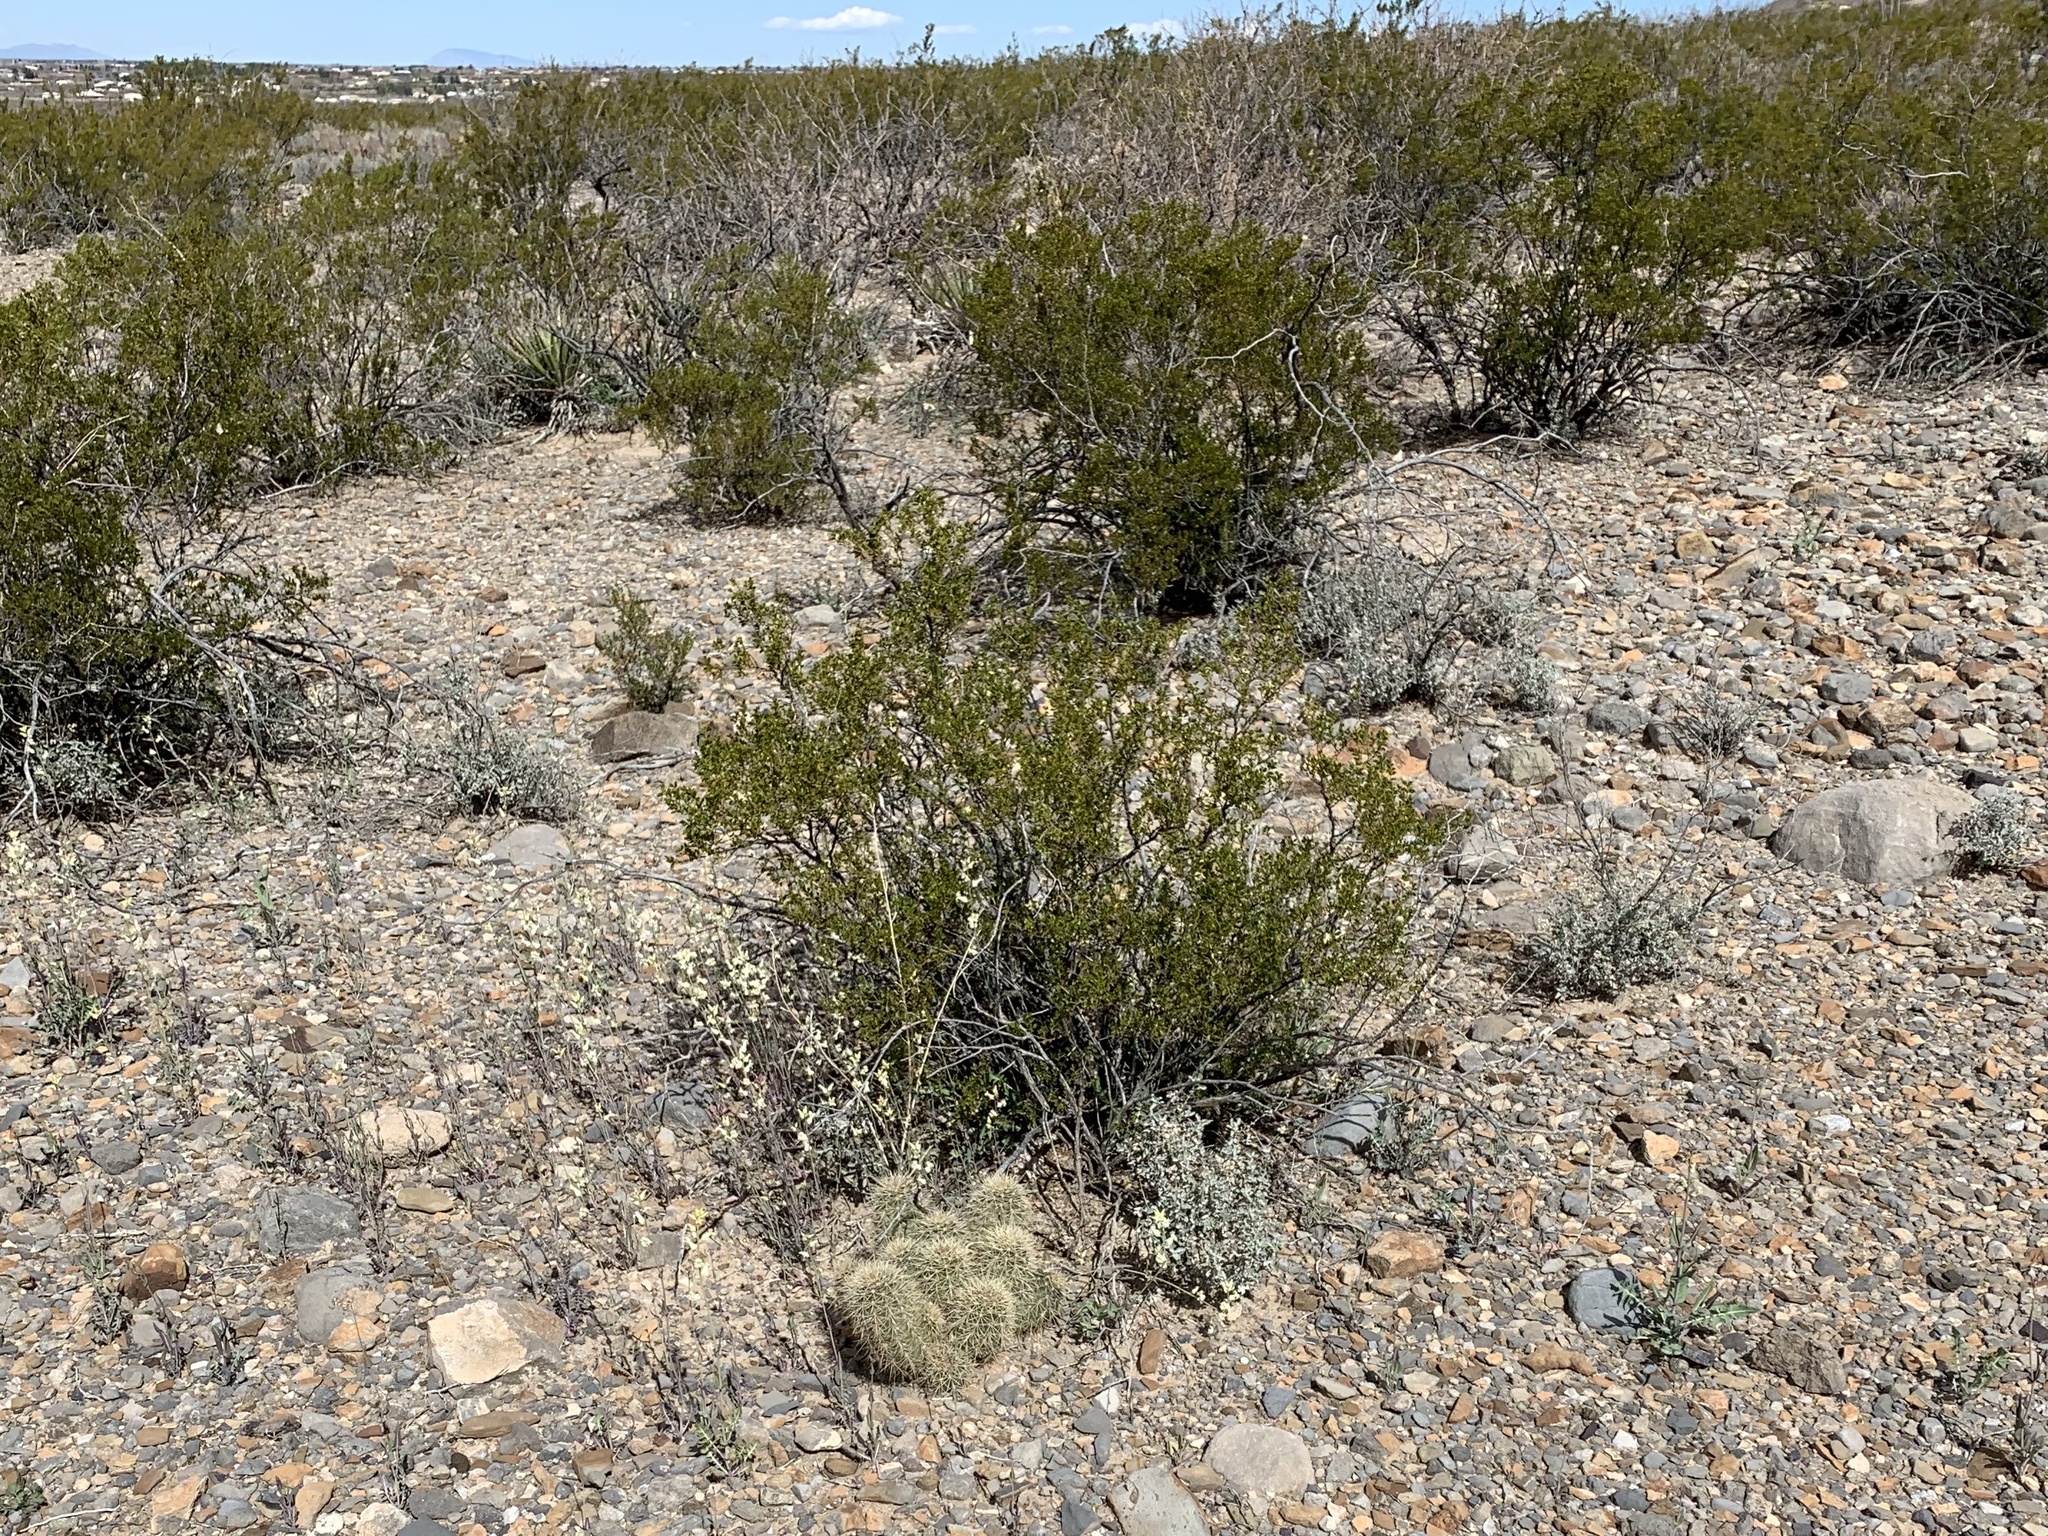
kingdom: Plantae
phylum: Tracheophyta
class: Magnoliopsida
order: Zygophyllales
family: Zygophyllaceae
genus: Larrea
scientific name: Larrea tridentata
